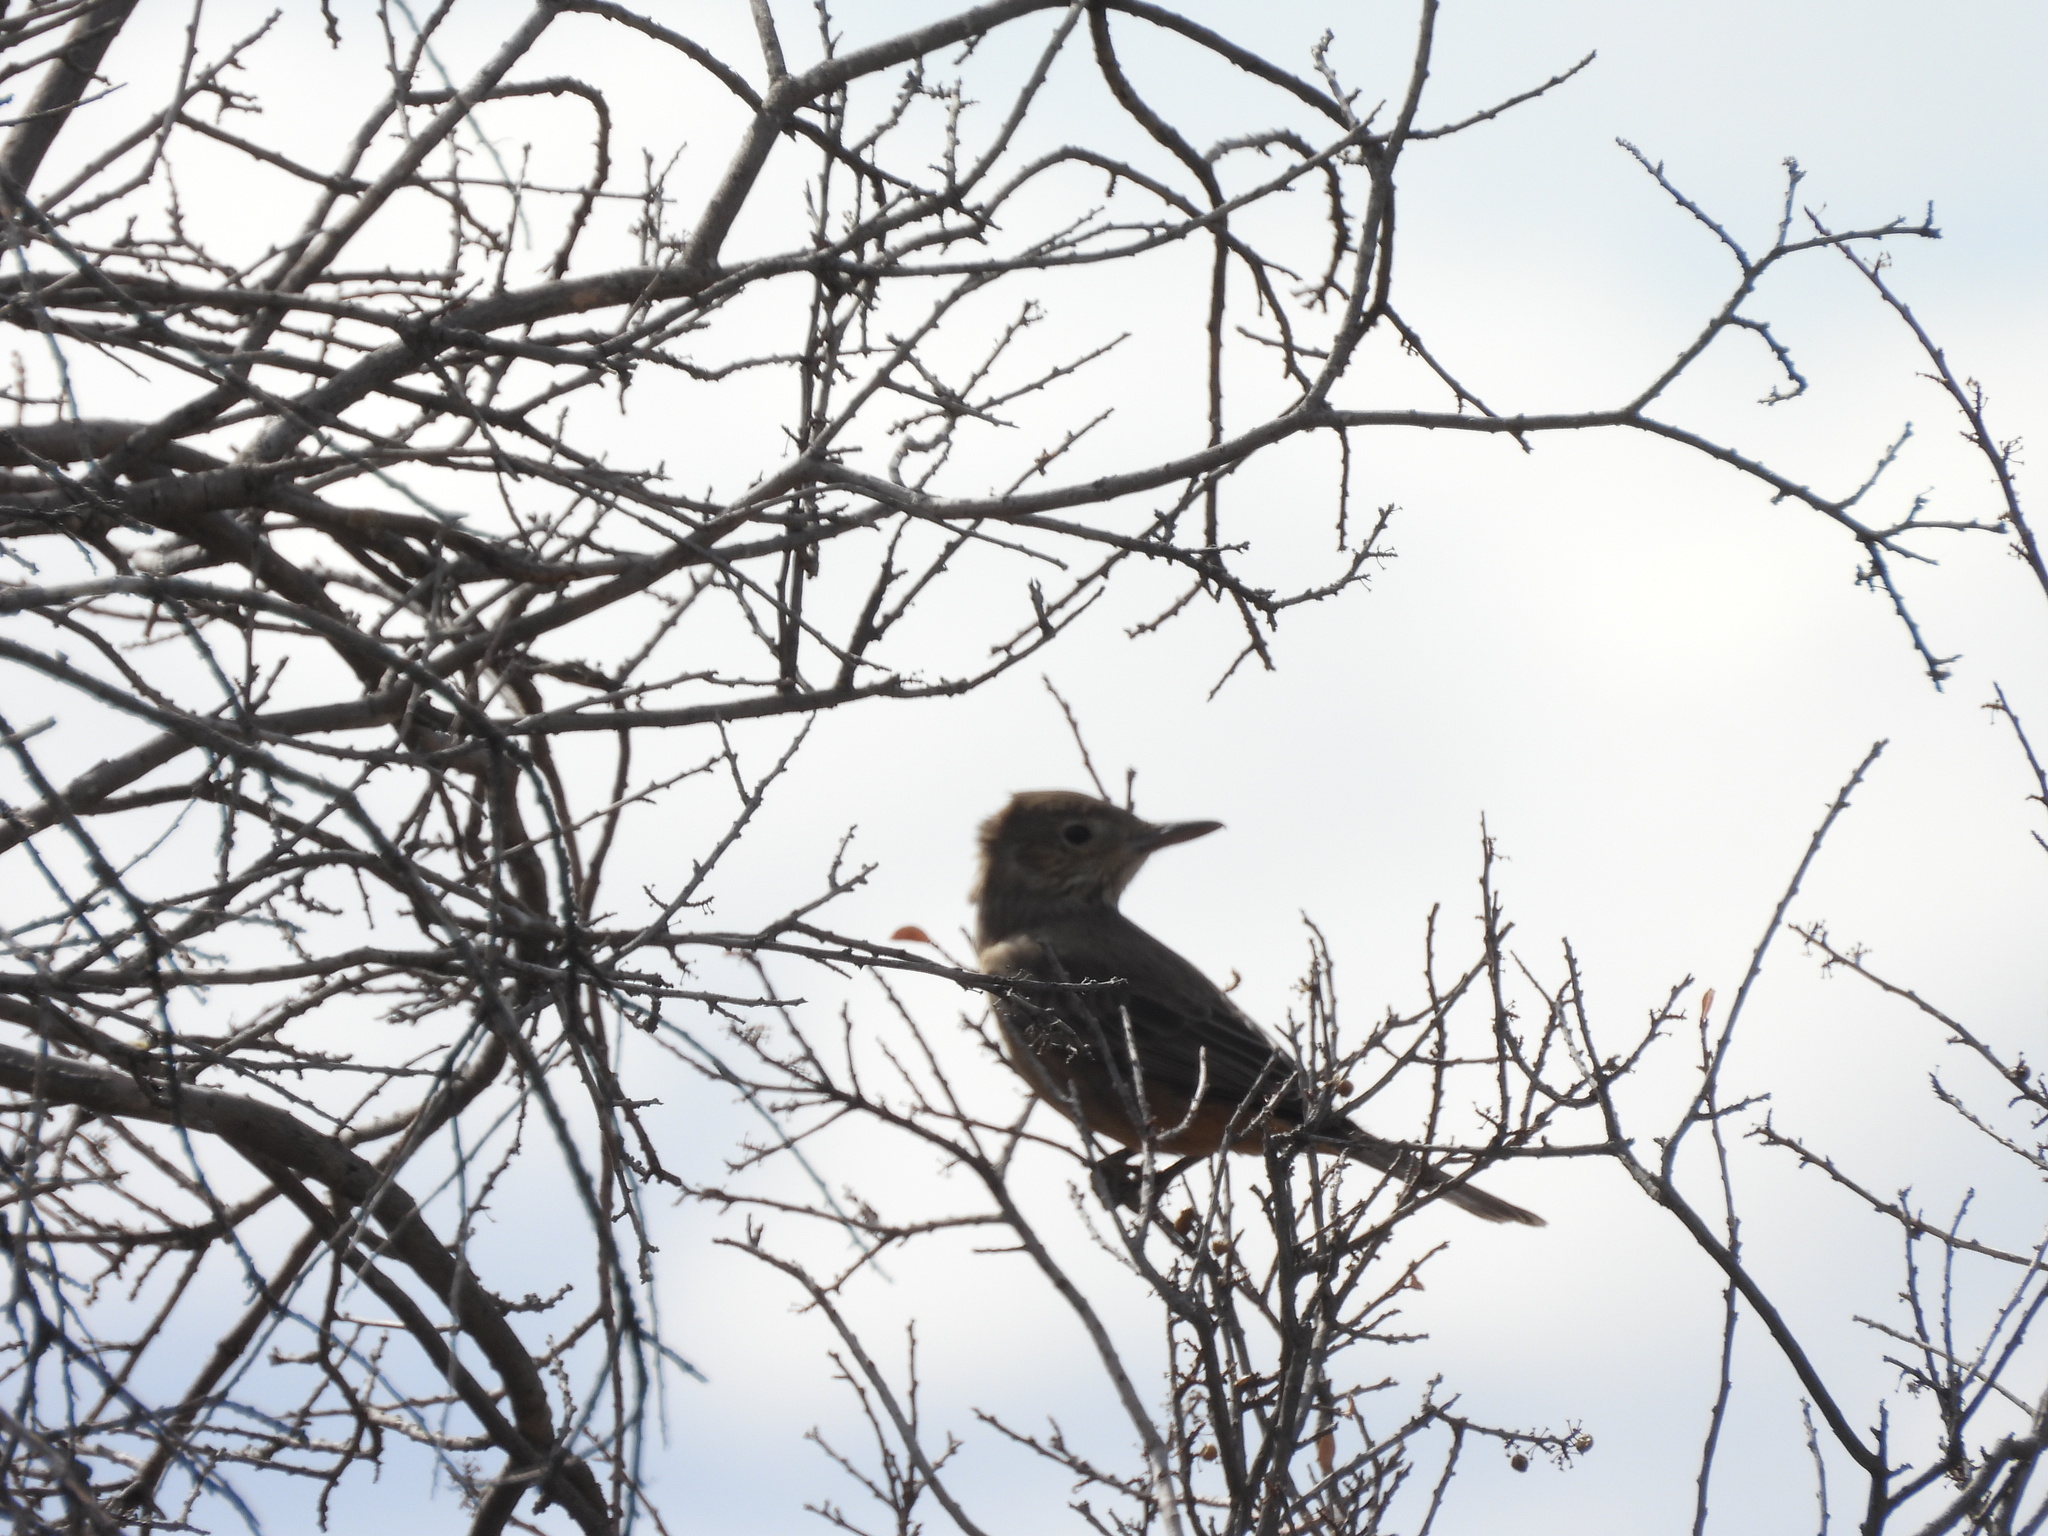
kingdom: Animalia
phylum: Chordata
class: Aves
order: Passeriformes
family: Tyrannidae
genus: Agriornis
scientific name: Agriornis lividus
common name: Great shrike-tyrant
